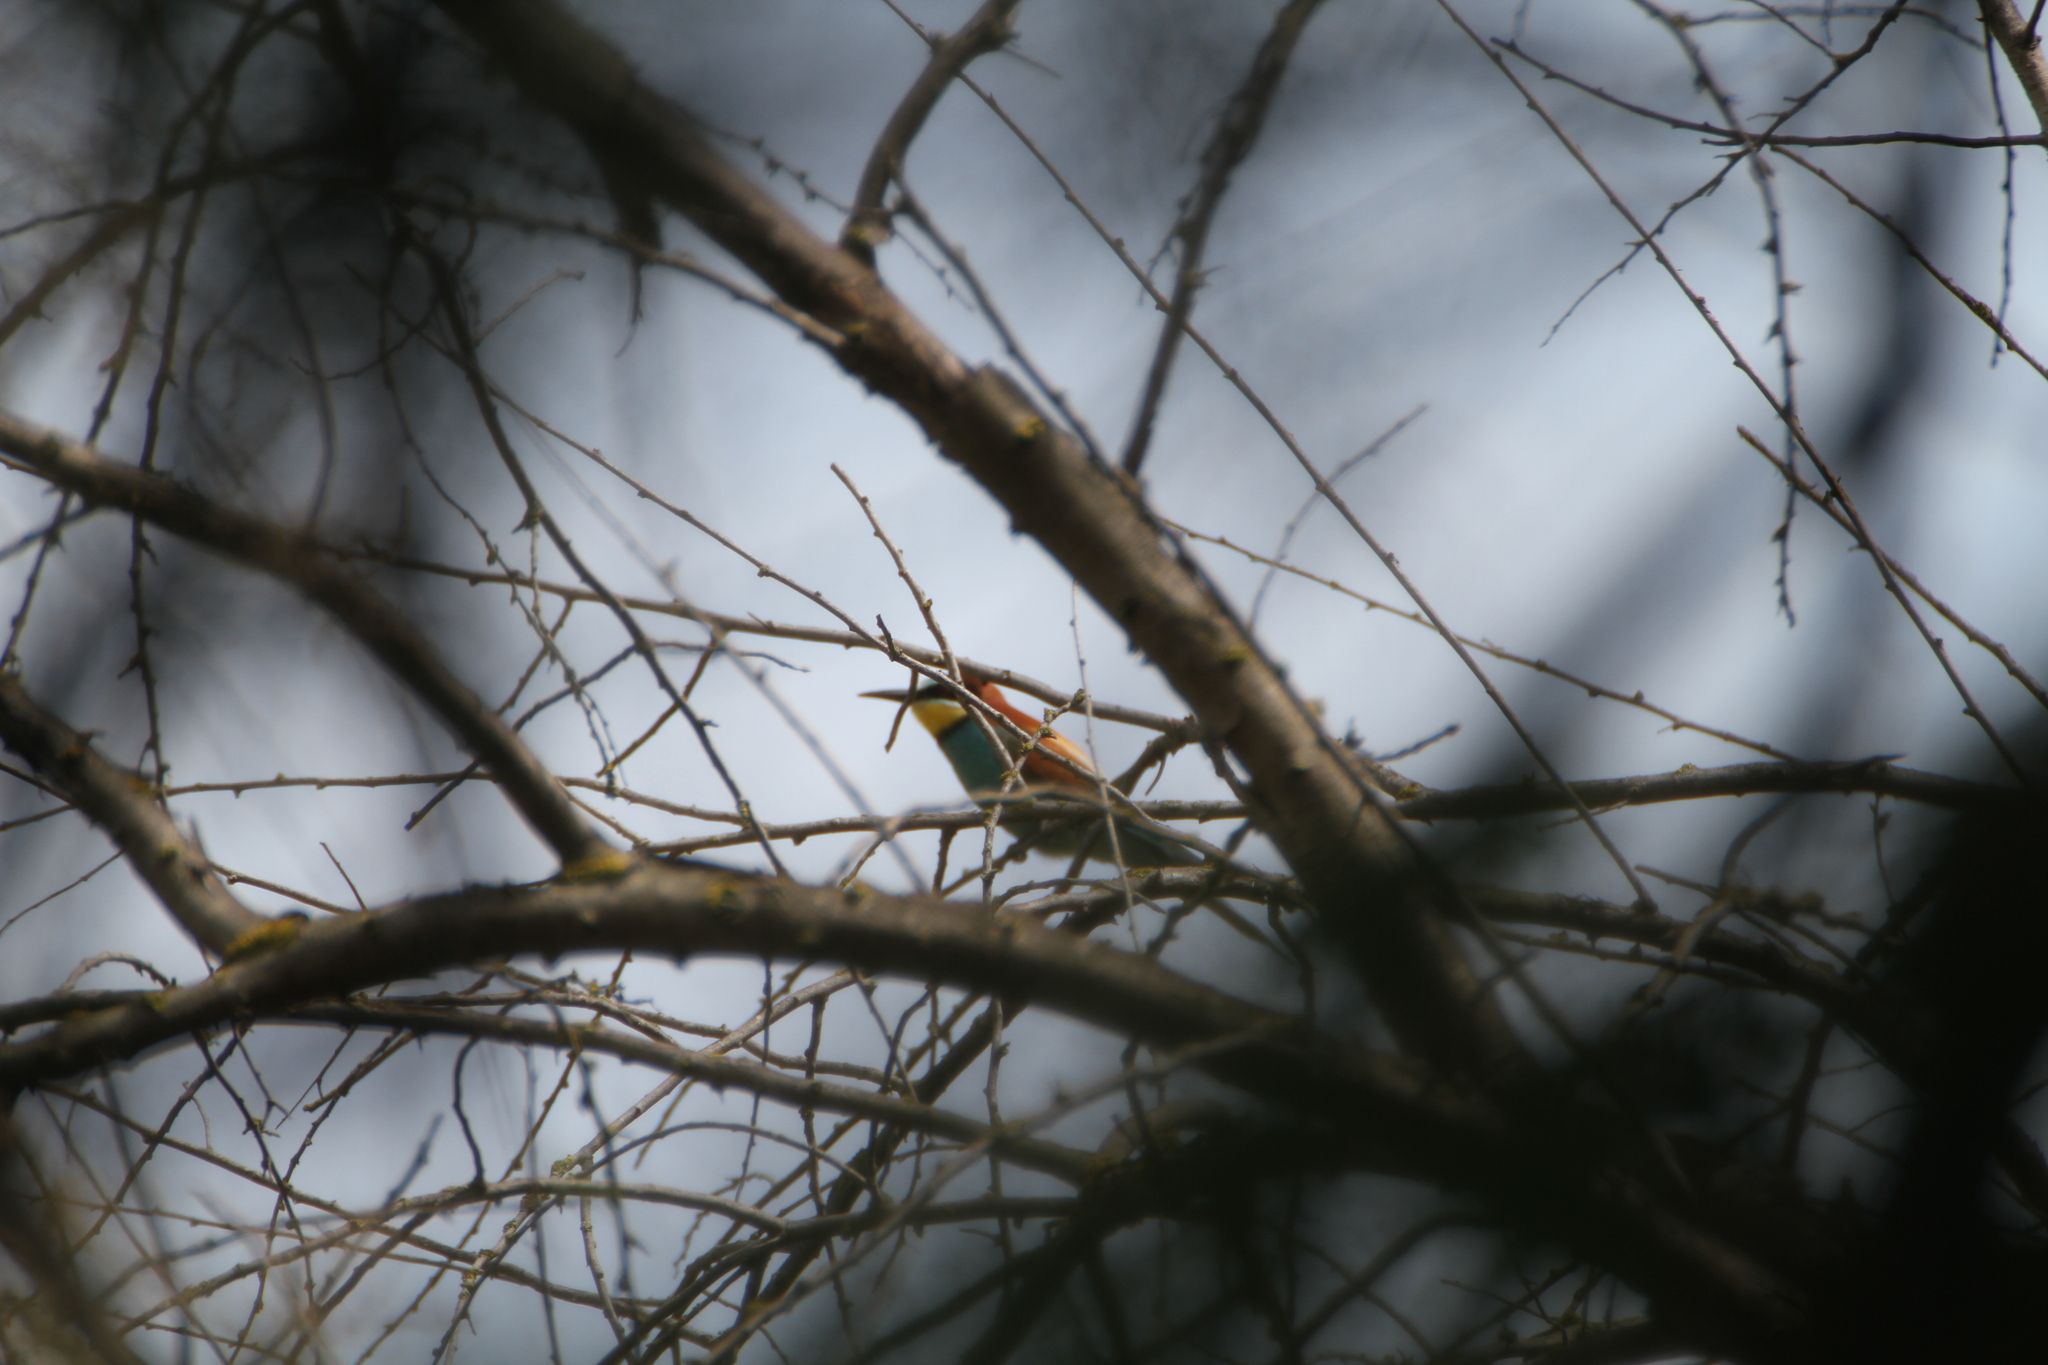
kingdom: Animalia
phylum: Chordata
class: Aves
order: Coraciiformes
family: Meropidae
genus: Merops
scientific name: Merops apiaster
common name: European bee-eater
